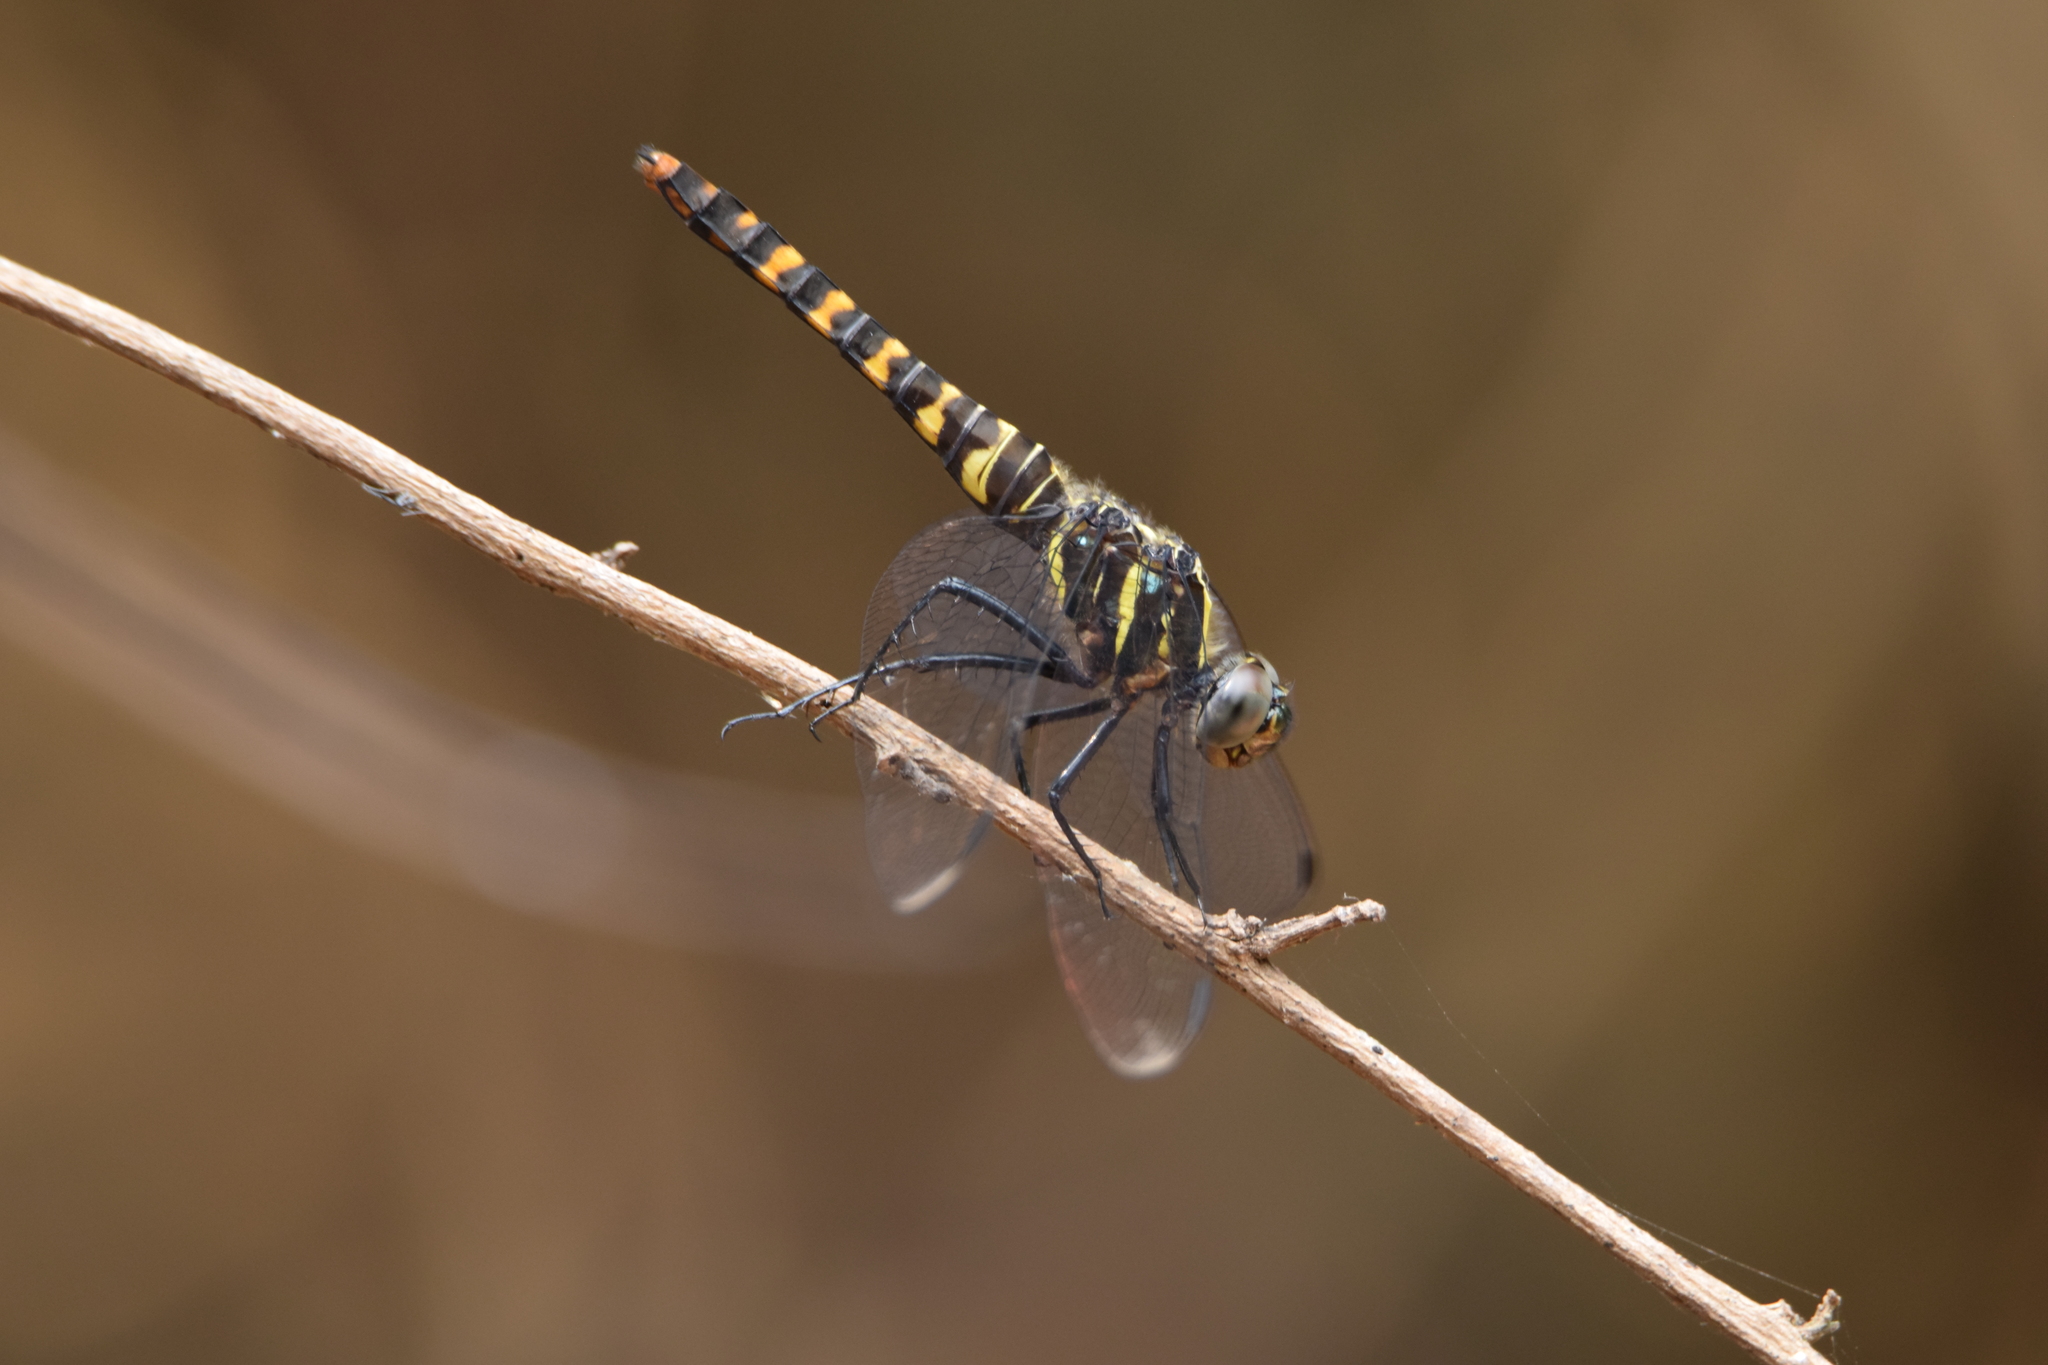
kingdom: Animalia
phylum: Arthropoda
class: Insecta
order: Odonata
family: Libellulidae
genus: Onychothemis
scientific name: Onychothemis testacea
